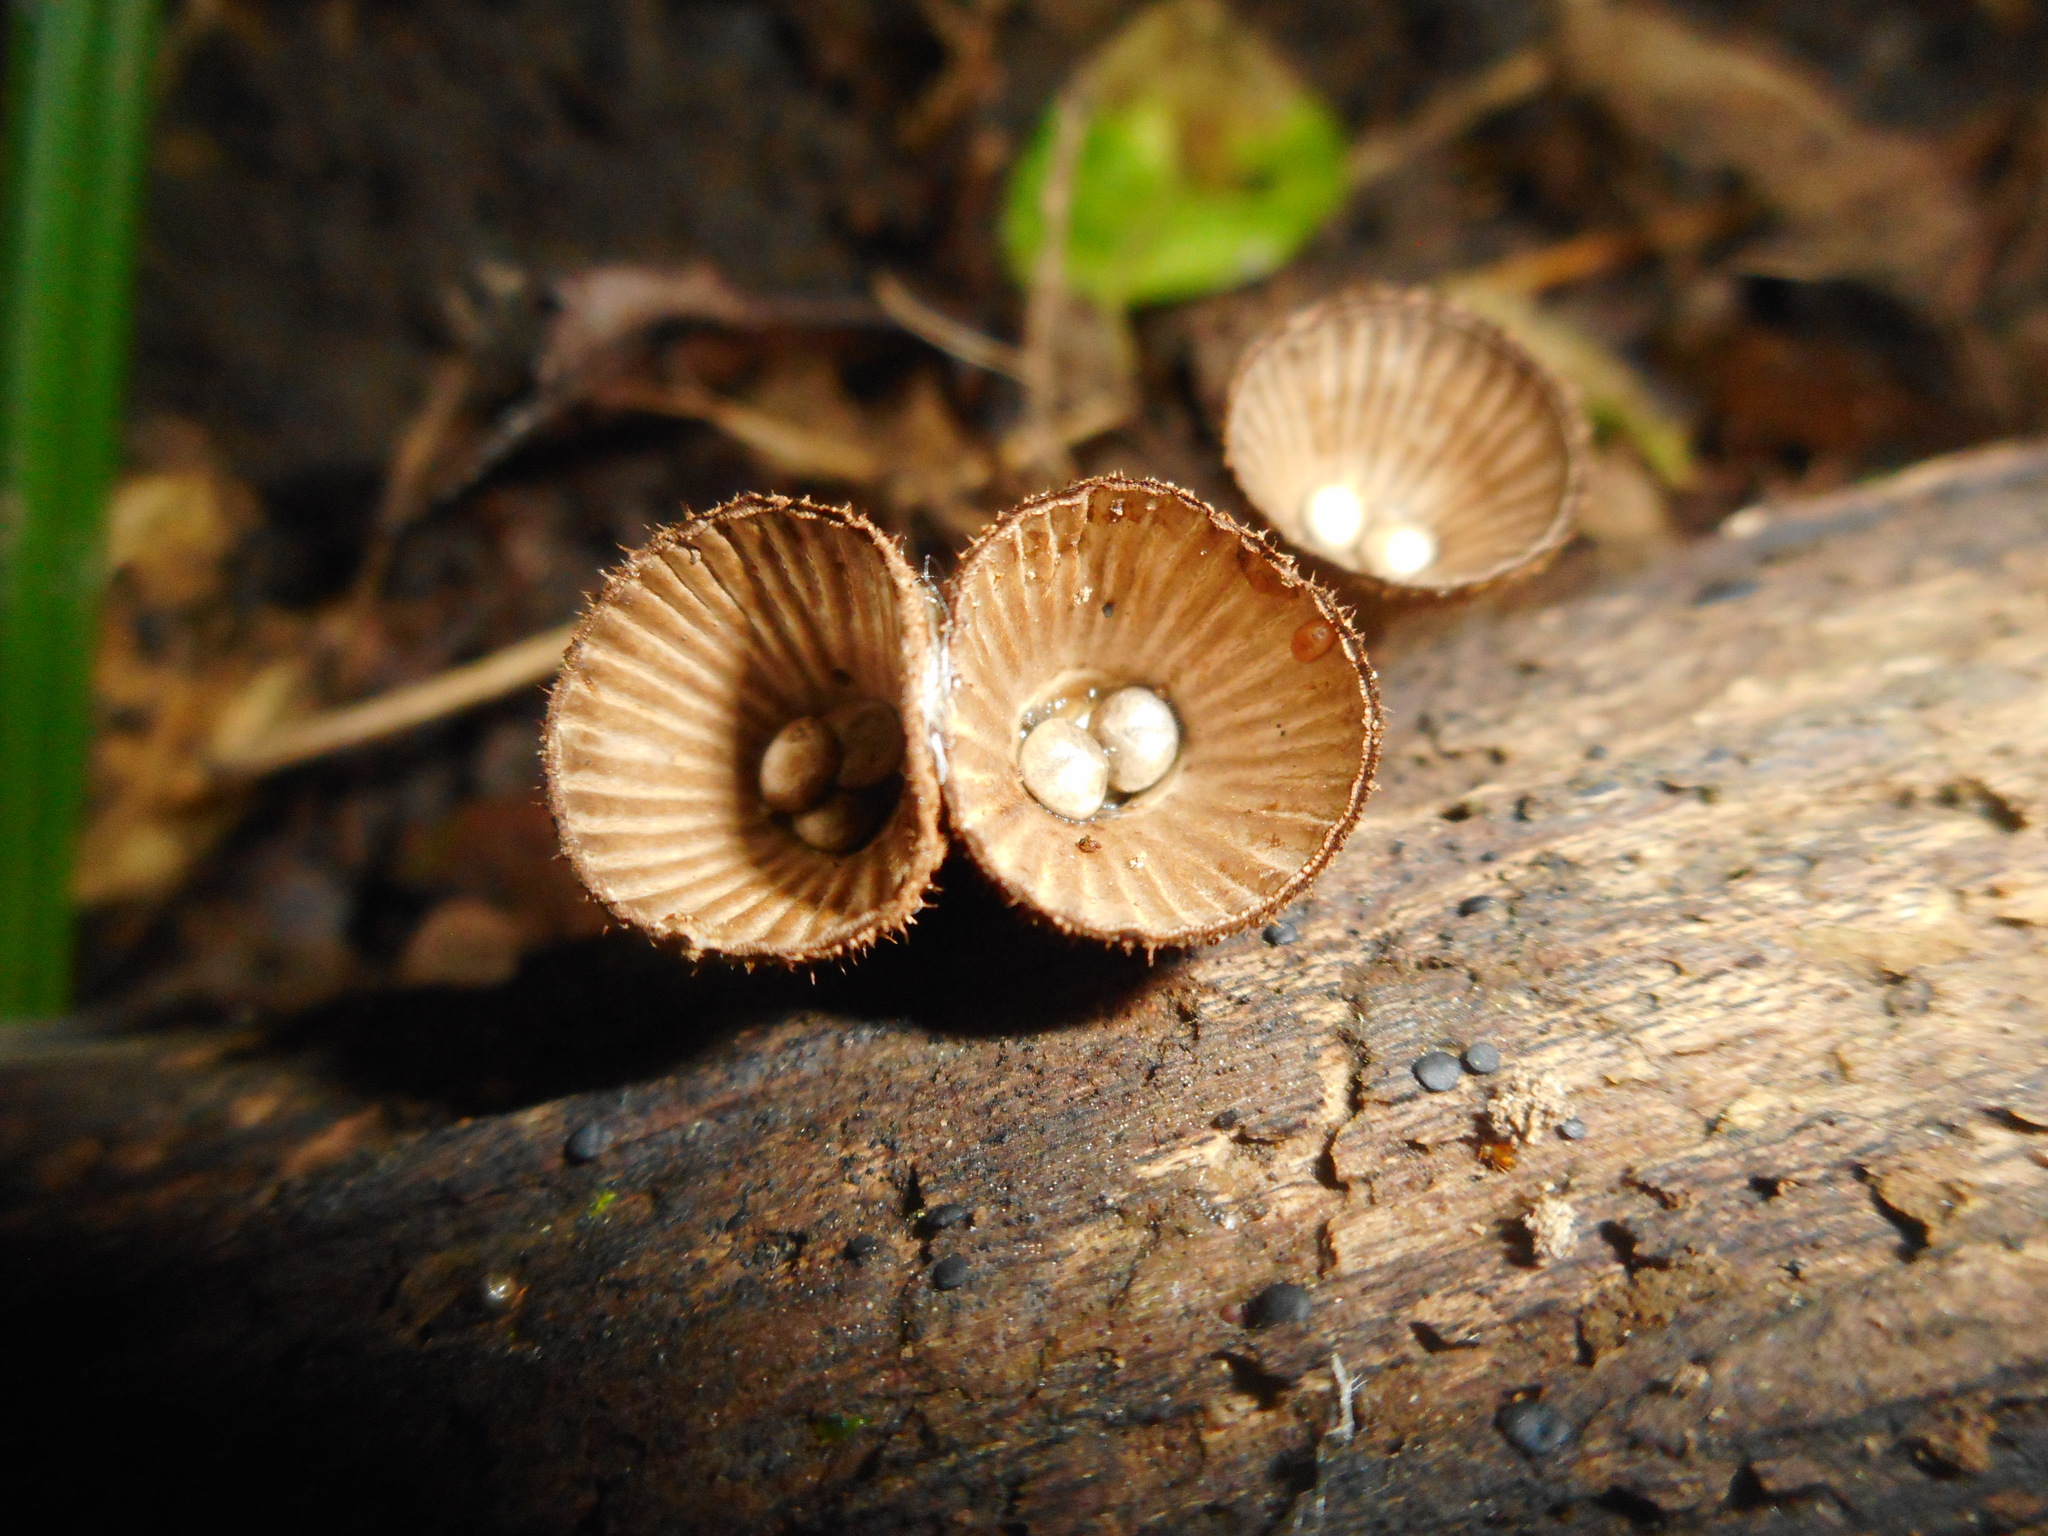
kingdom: Fungi
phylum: Basidiomycota
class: Agaricomycetes
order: Agaricales
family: Agaricaceae
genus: Cyathus
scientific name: Cyathus striatus
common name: Fluted bird's nest
